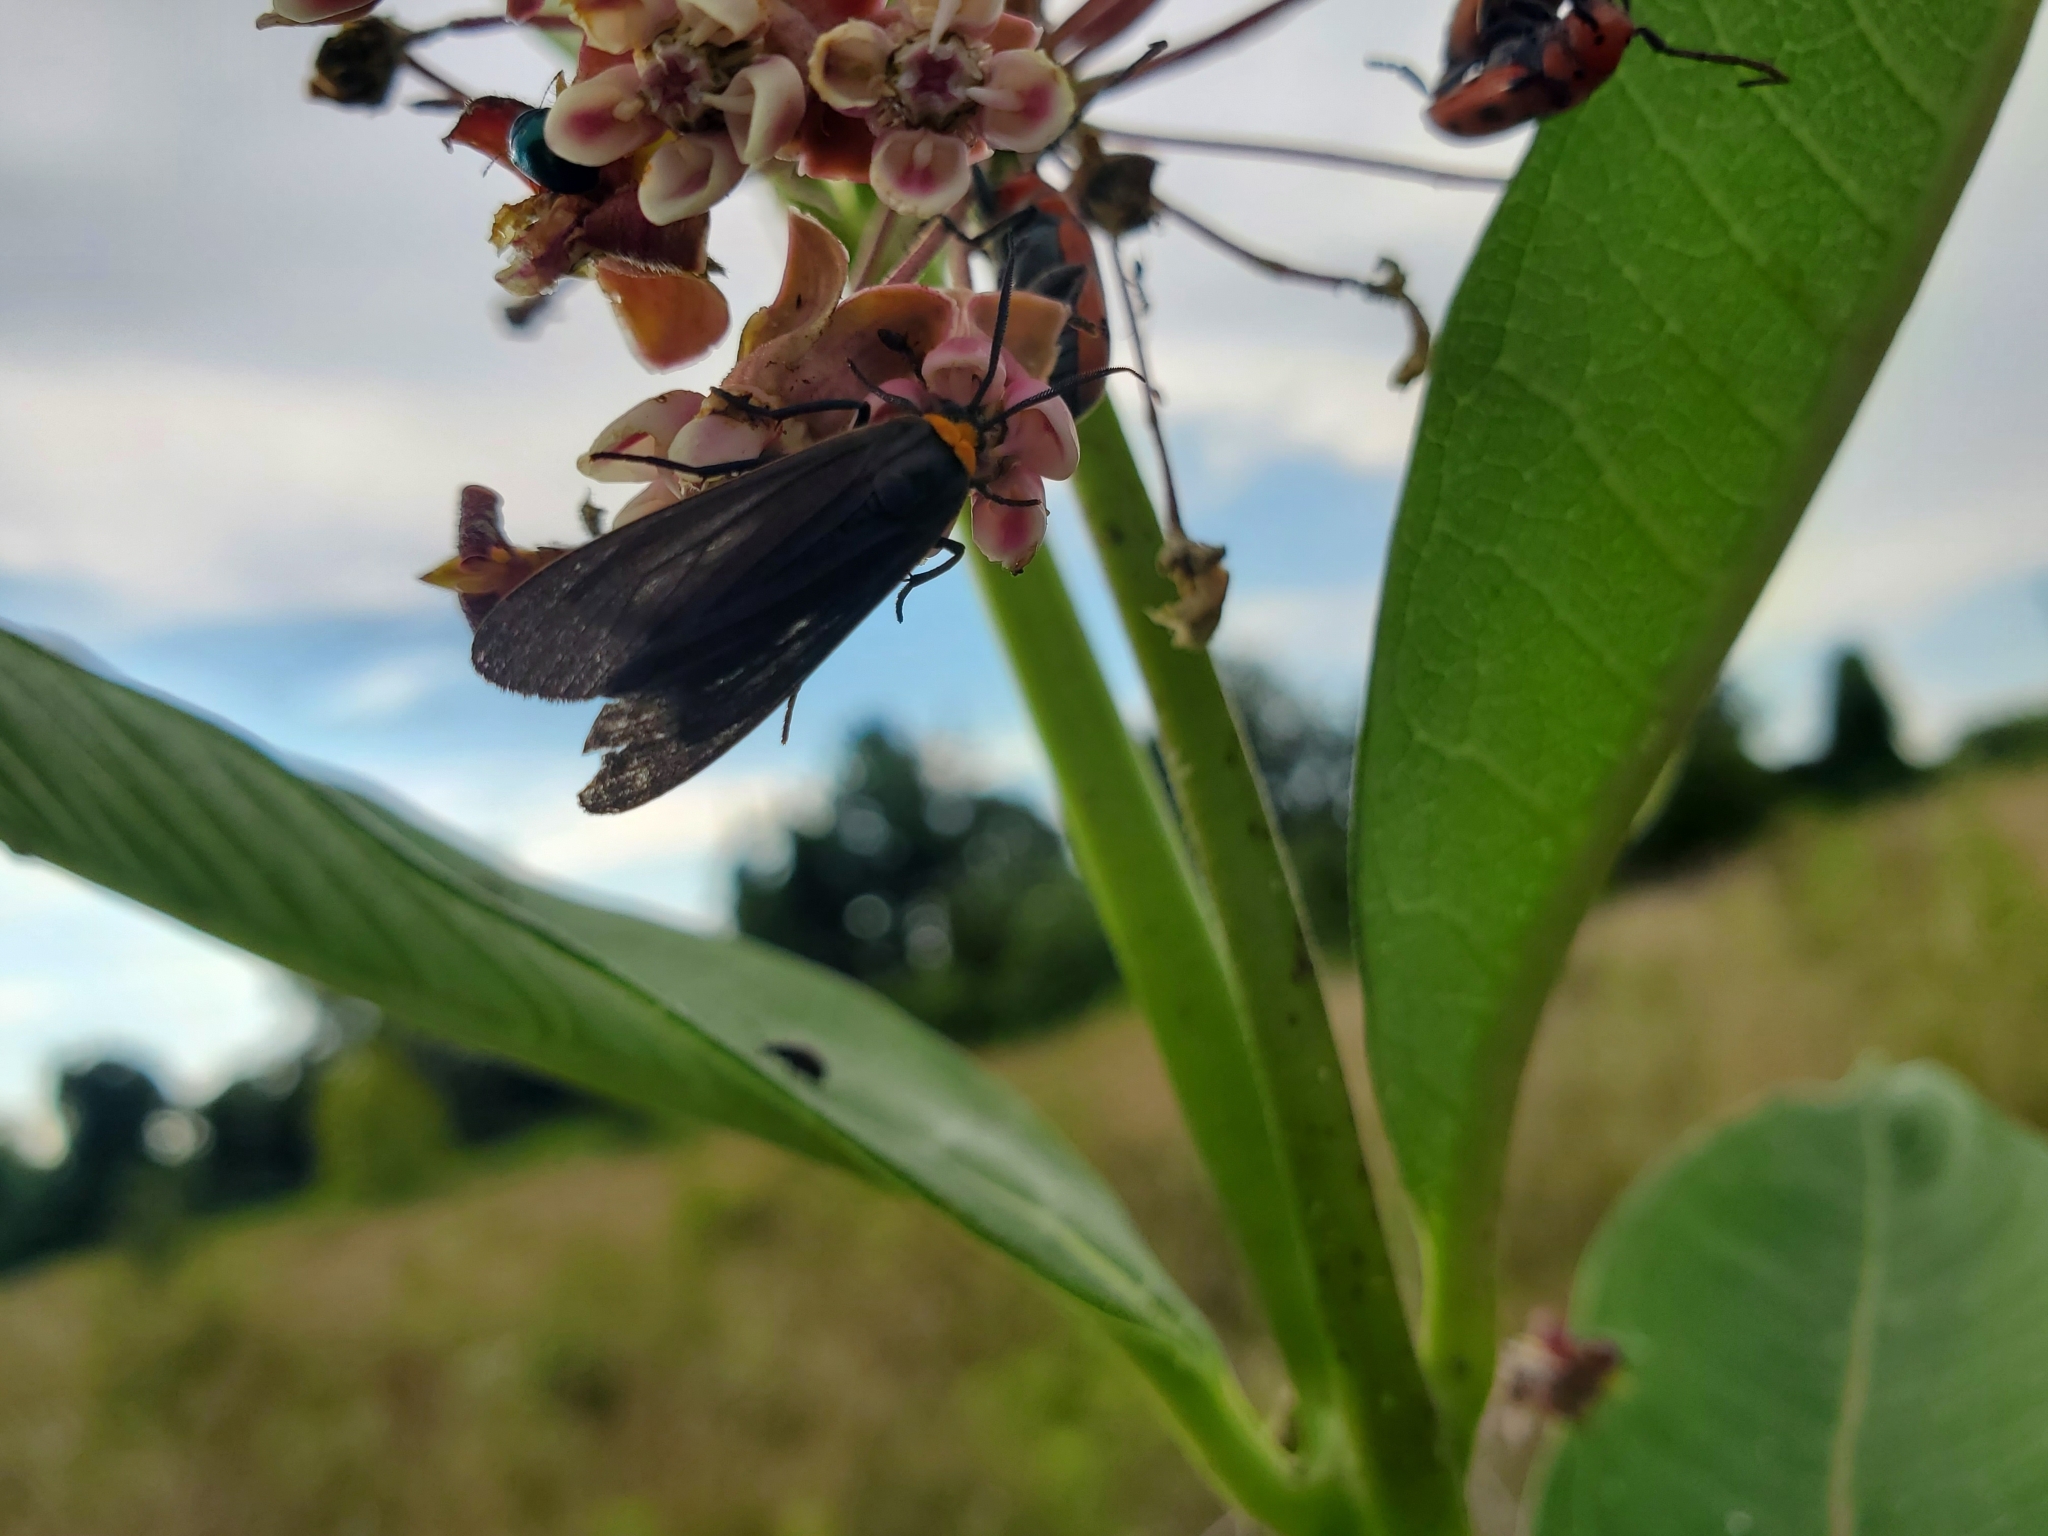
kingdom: Animalia
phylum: Arthropoda
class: Insecta
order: Lepidoptera
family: Erebidae
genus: Cisseps
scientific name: Cisseps fulvicollis
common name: Yellow-collared scape moth
